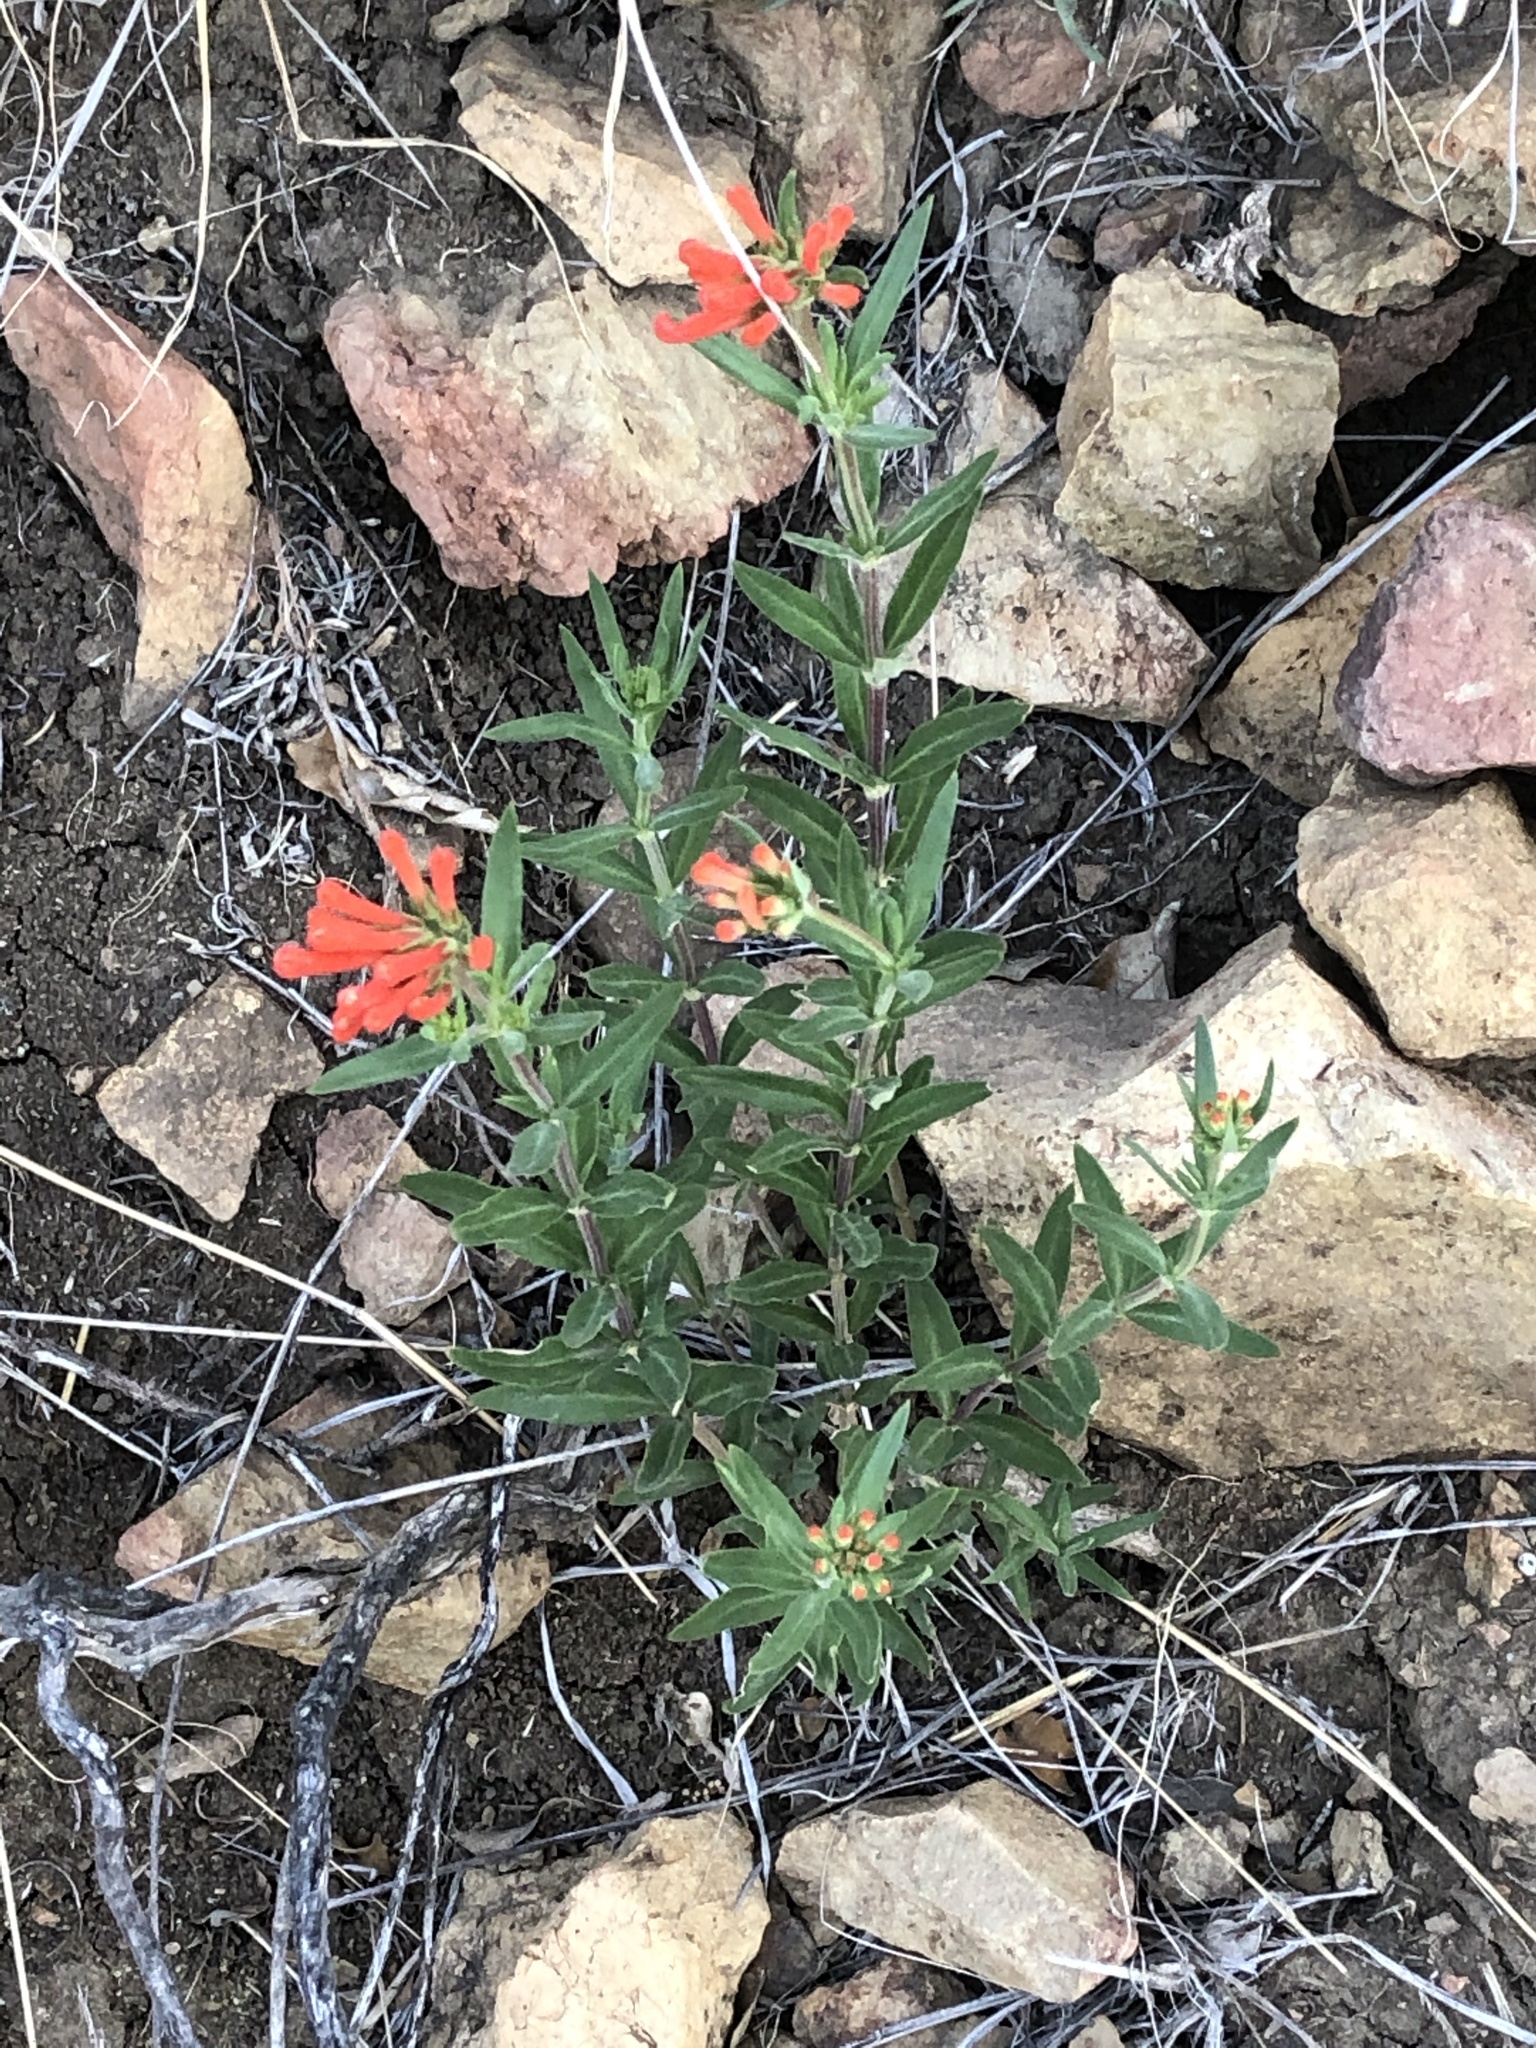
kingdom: Plantae
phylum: Tracheophyta
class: Magnoliopsida
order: Gentianales
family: Rubiaceae
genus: Bouvardia
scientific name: Bouvardia ternifolia
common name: Scarlet bouvardia
